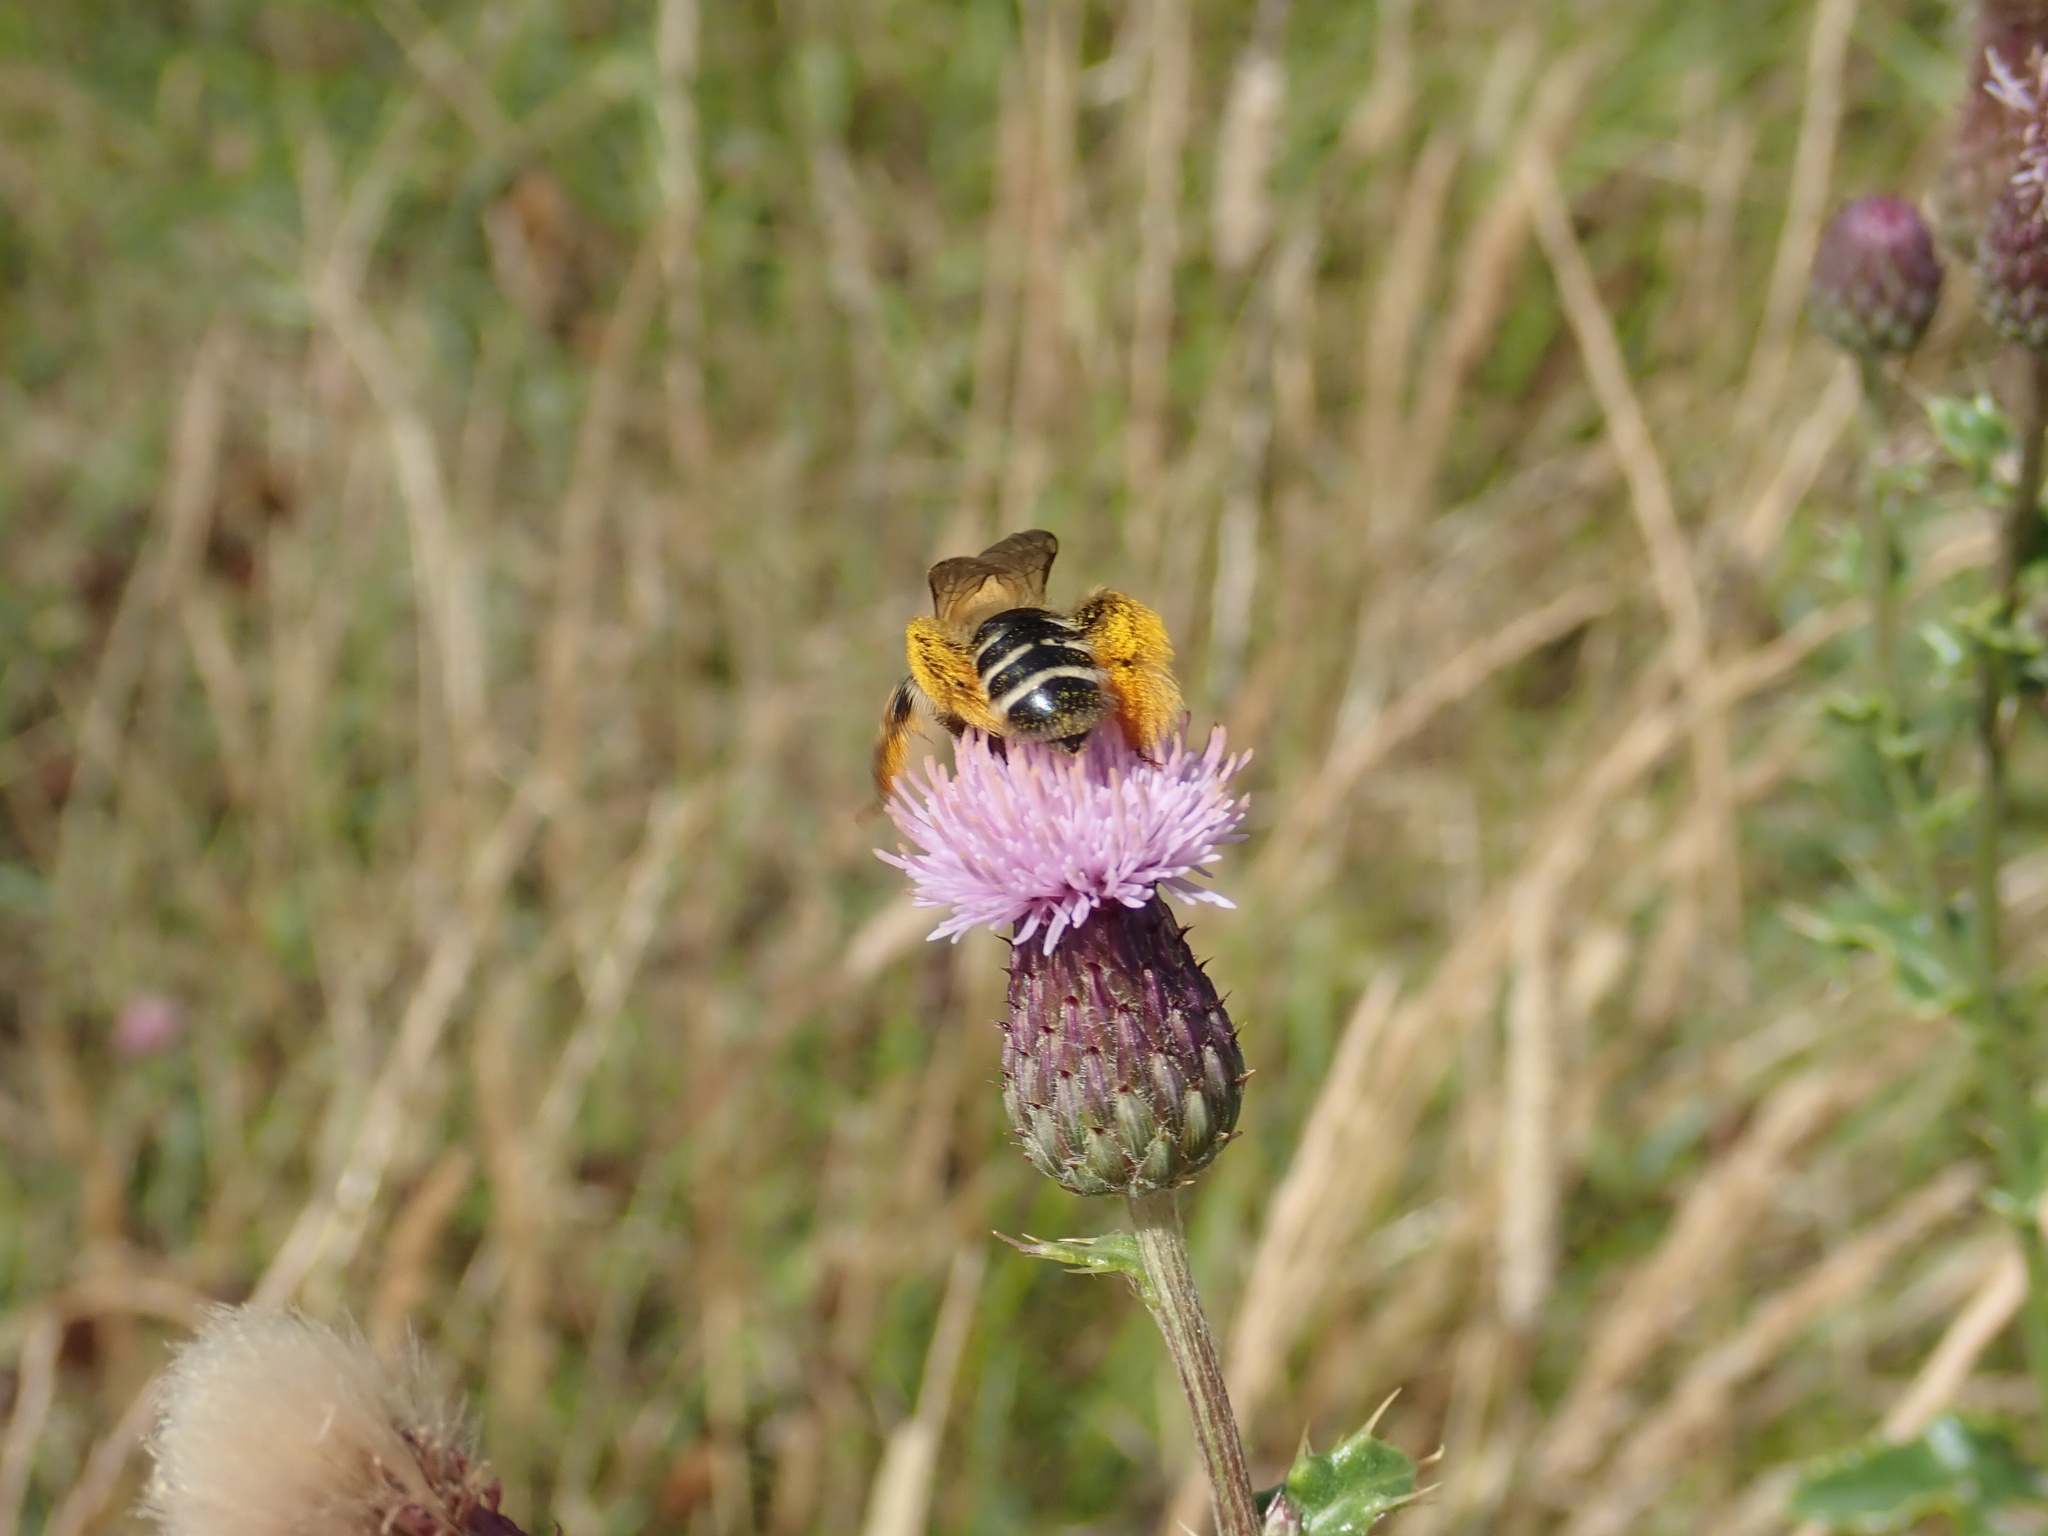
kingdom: Animalia
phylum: Arthropoda
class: Insecta
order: Hymenoptera
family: Melittidae
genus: Dasypoda
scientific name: Dasypoda hirtipes
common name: Pantaloon bee
